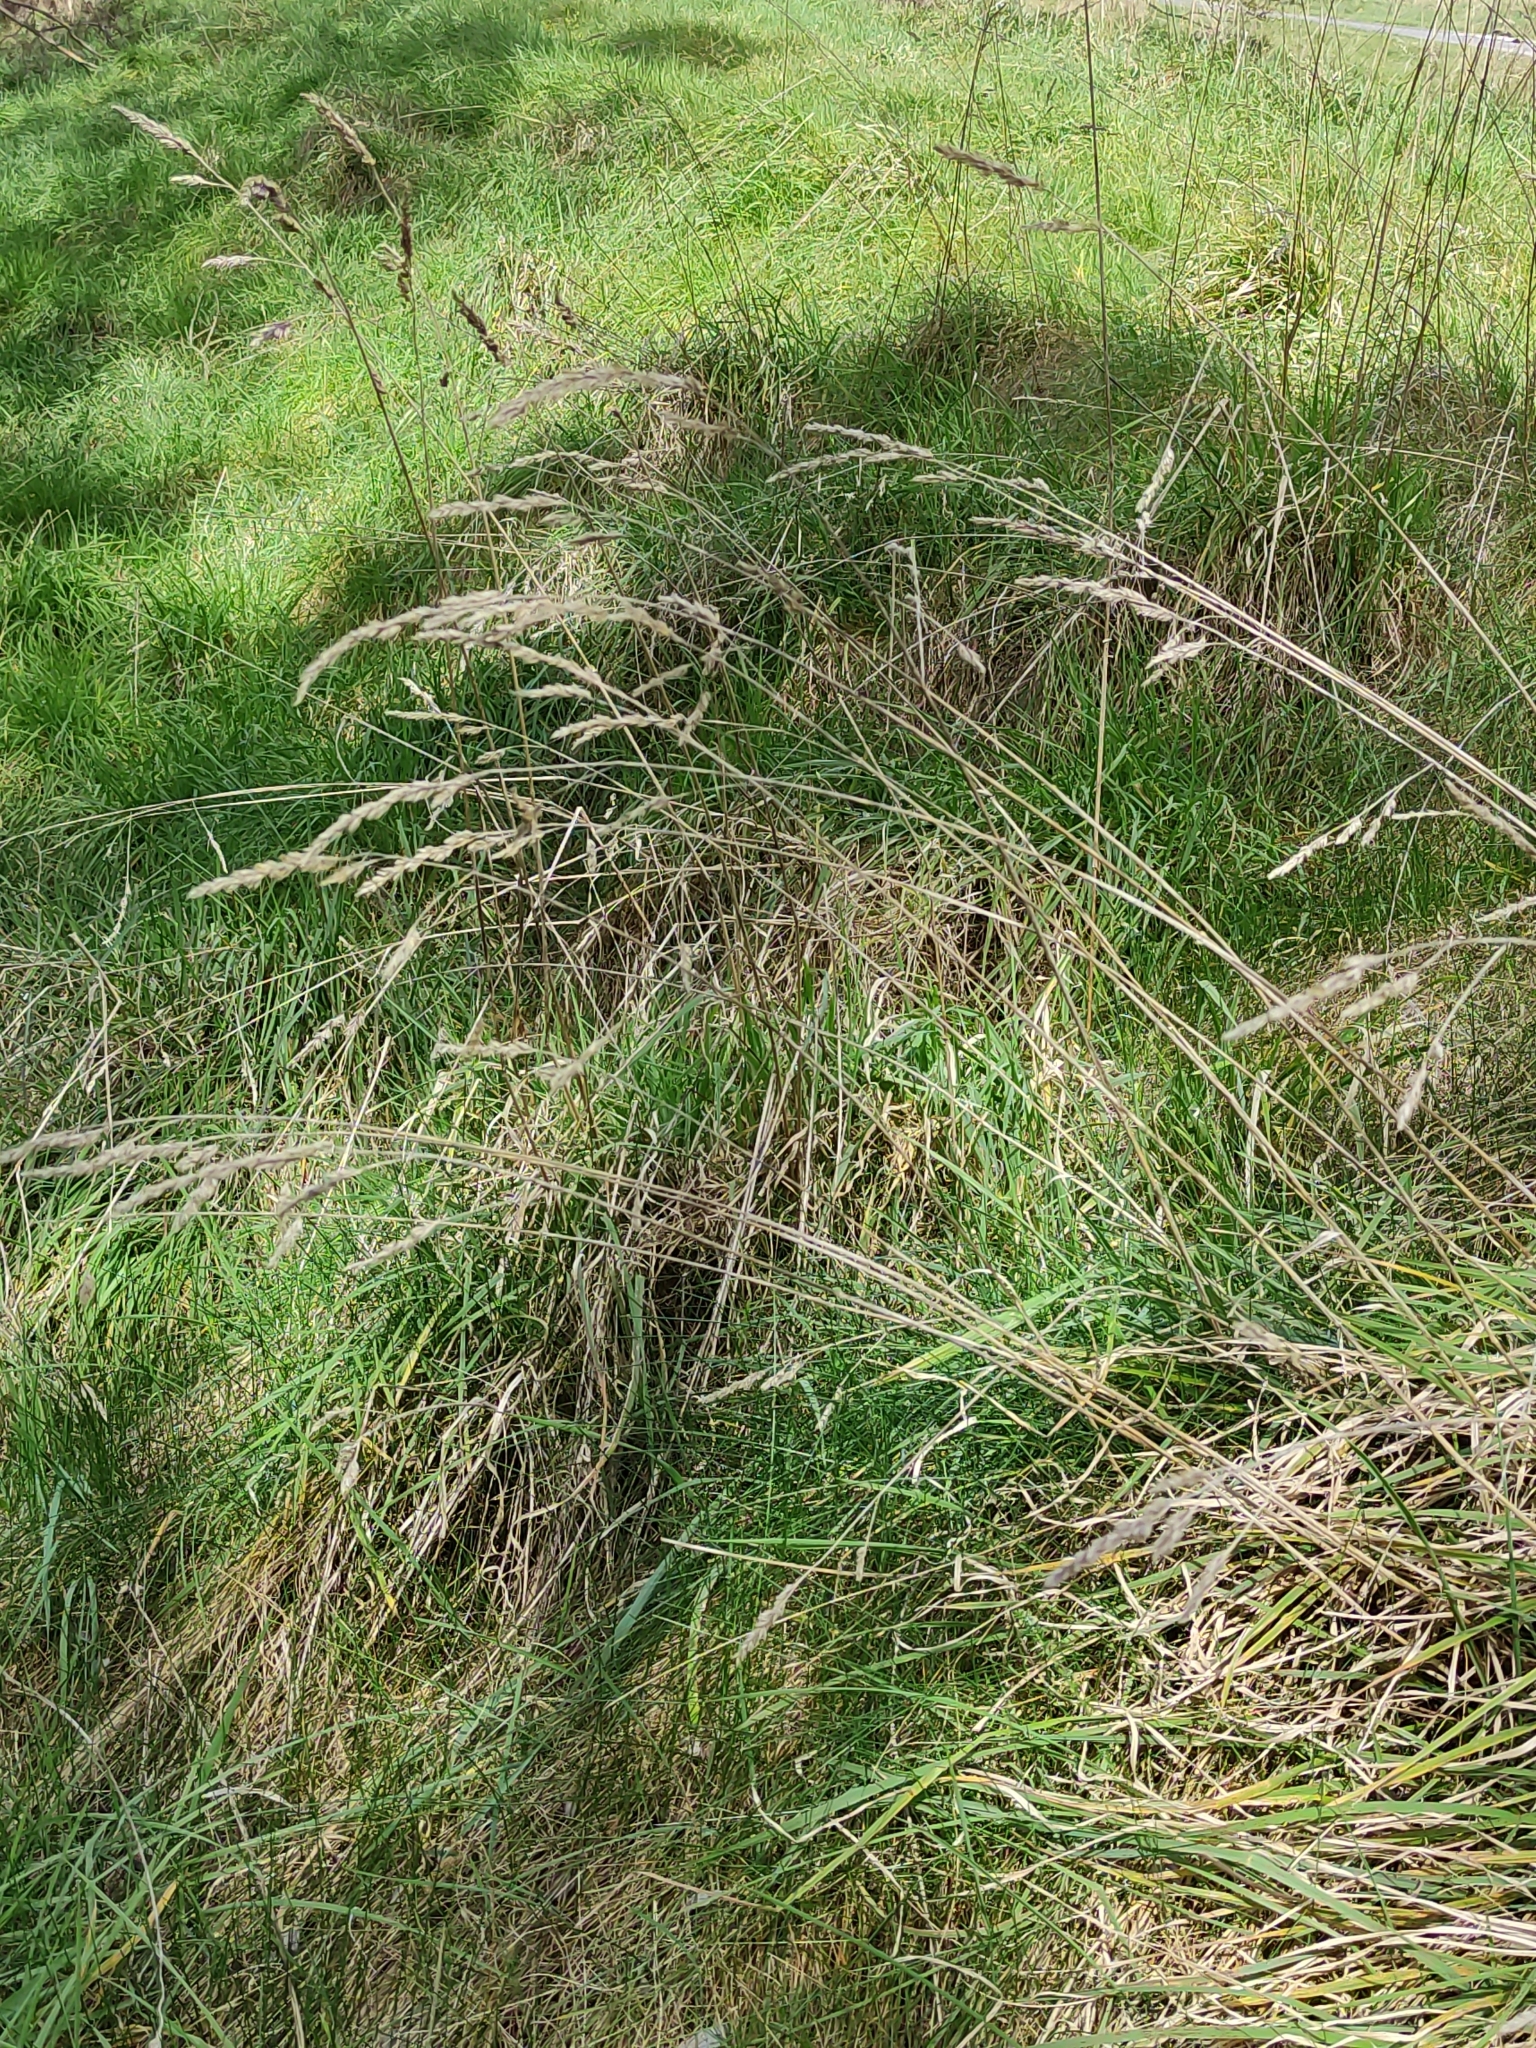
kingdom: Plantae
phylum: Tracheophyta
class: Liliopsida
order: Poales
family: Poaceae
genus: Dactylis
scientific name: Dactylis glomerata
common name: Orchardgrass
